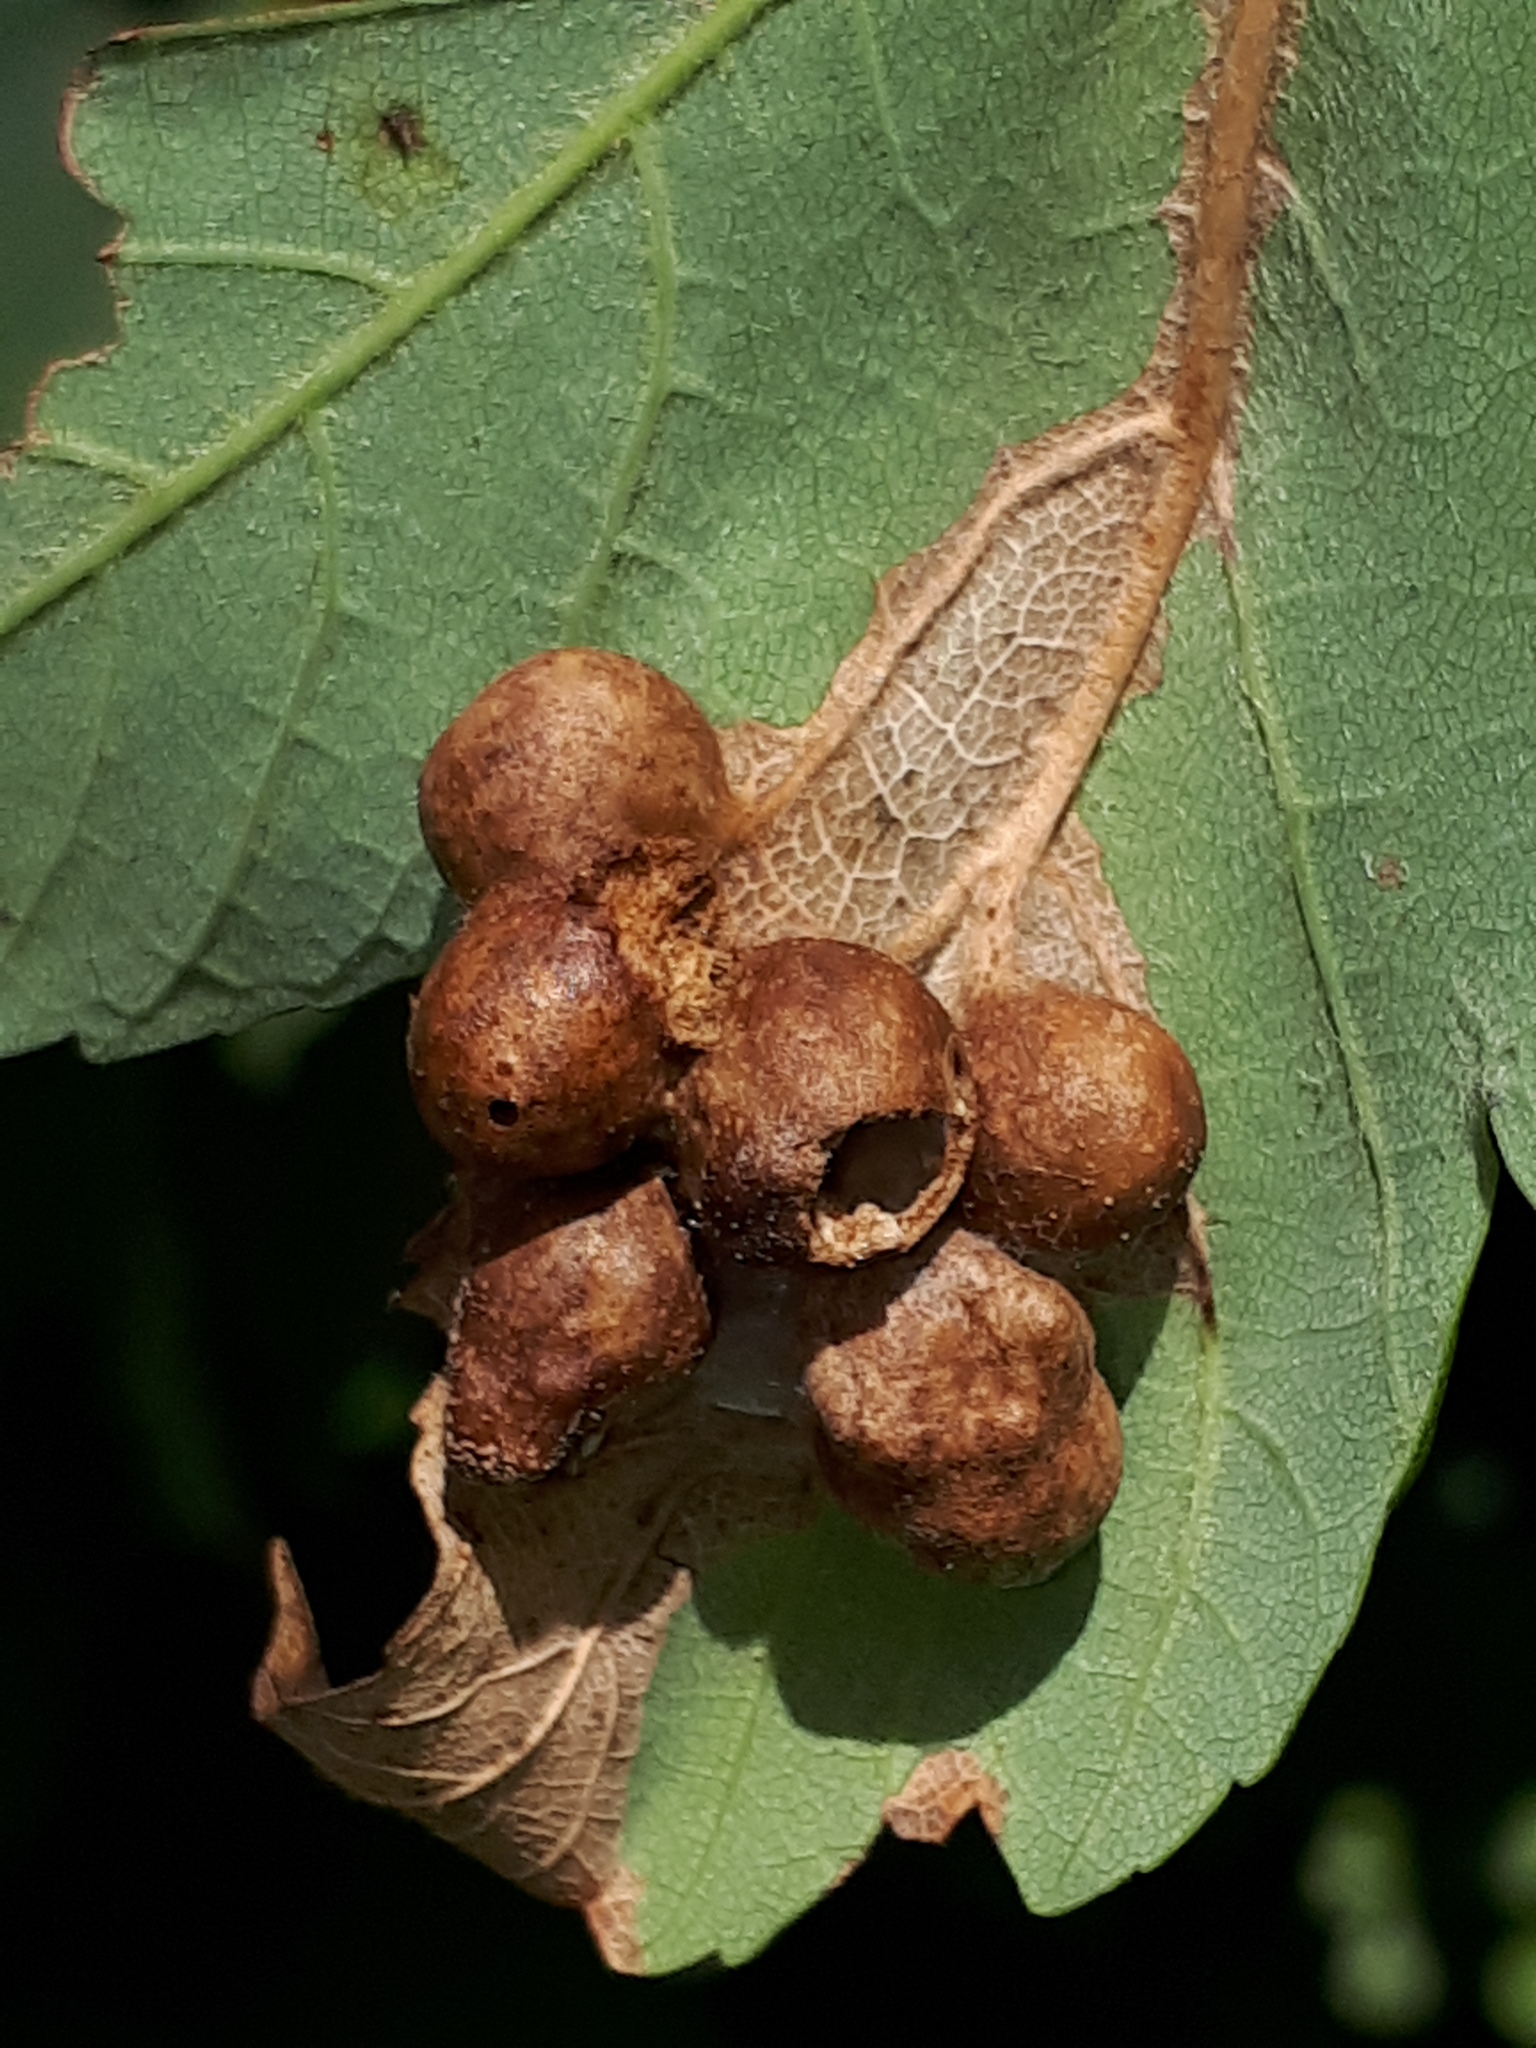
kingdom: Animalia
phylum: Arthropoda
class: Insecta
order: Hymenoptera
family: Cynipidae
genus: Pediaspis
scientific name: Pediaspis aceris
